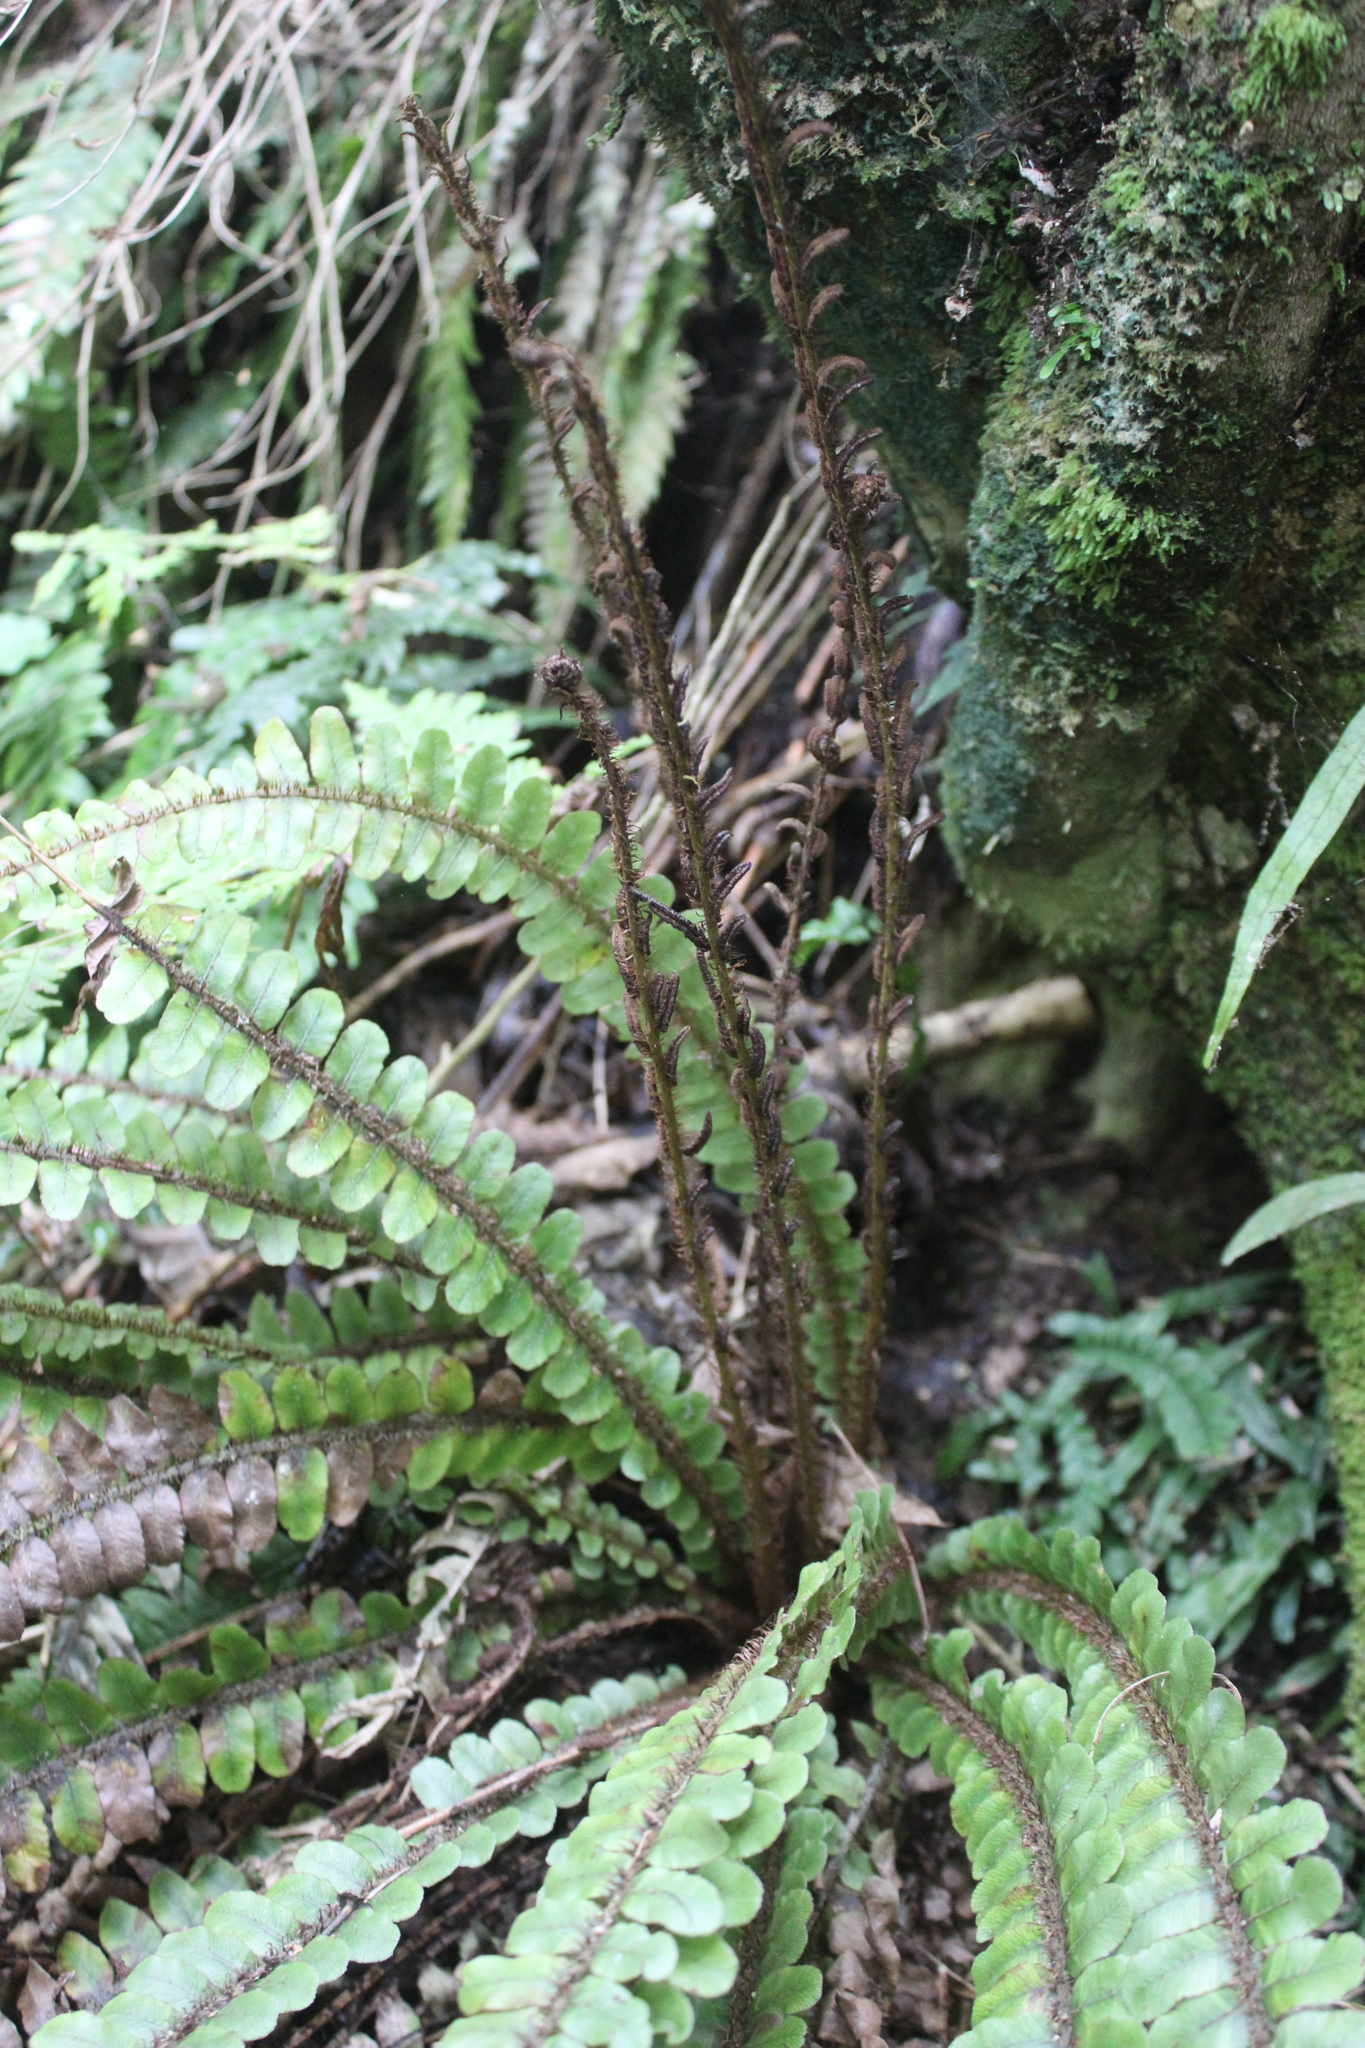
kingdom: Plantae
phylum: Tracheophyta
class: Polypodiopsida
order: Polypodiales
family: Blechnaceae
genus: Cranfillia
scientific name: Cranfillia fluviatilis
